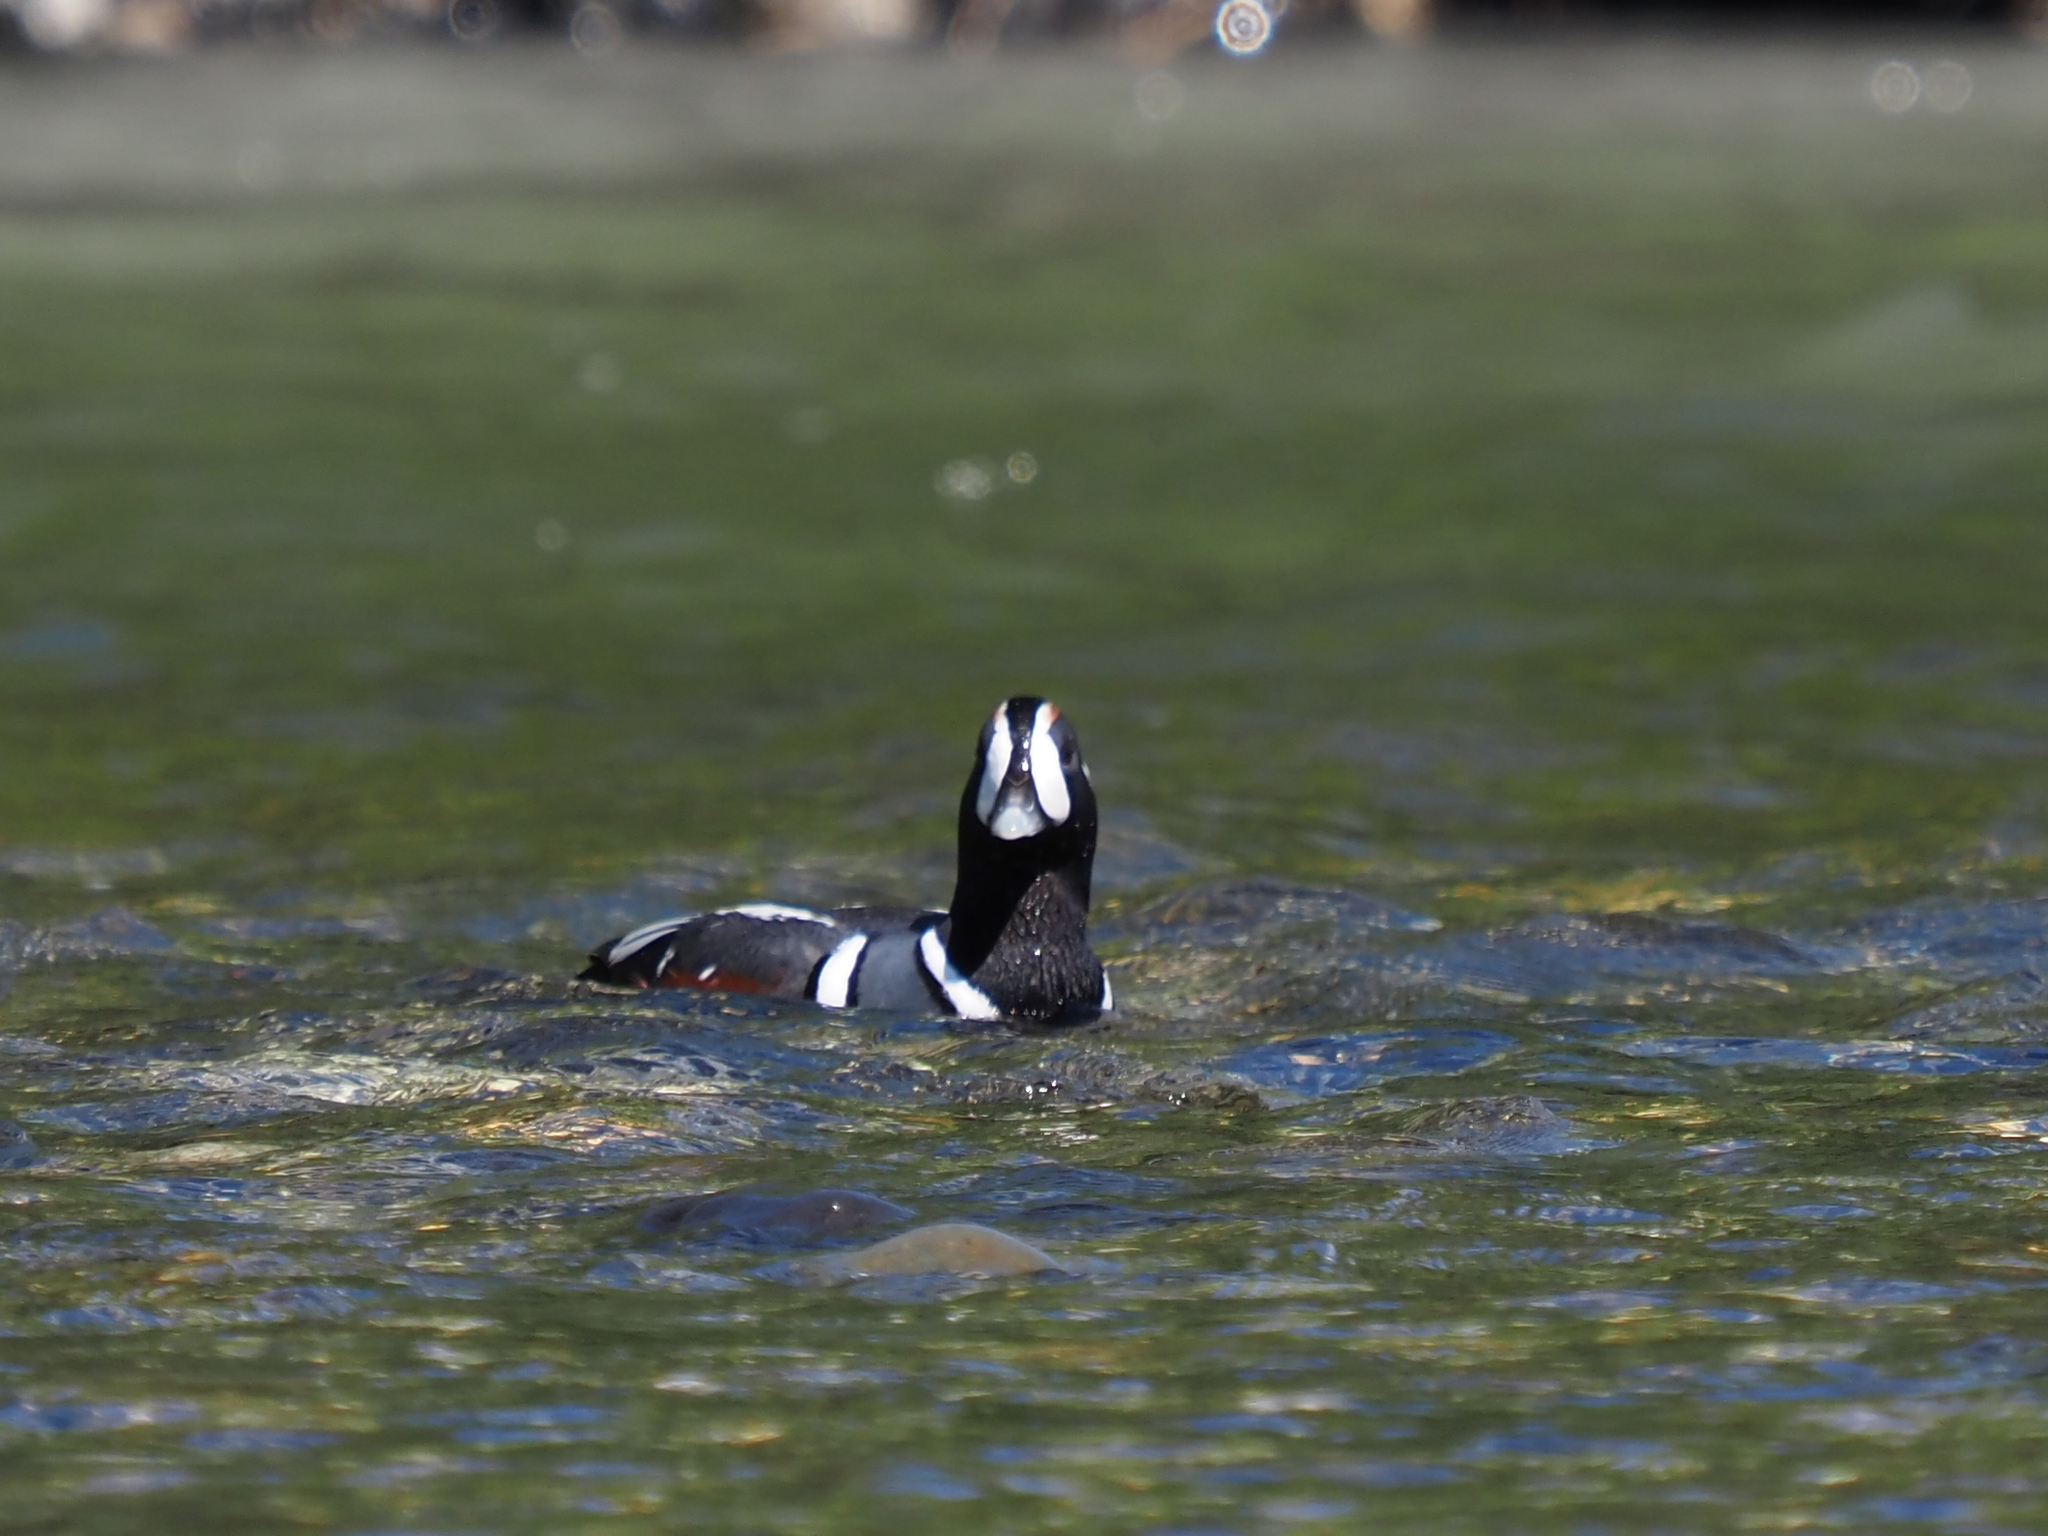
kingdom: Animalia
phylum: Chordata
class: Aves
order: Anseriformes
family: Anatidae
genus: Histrionicus
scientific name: Histrionicus histrionicus
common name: Harlequin duck
